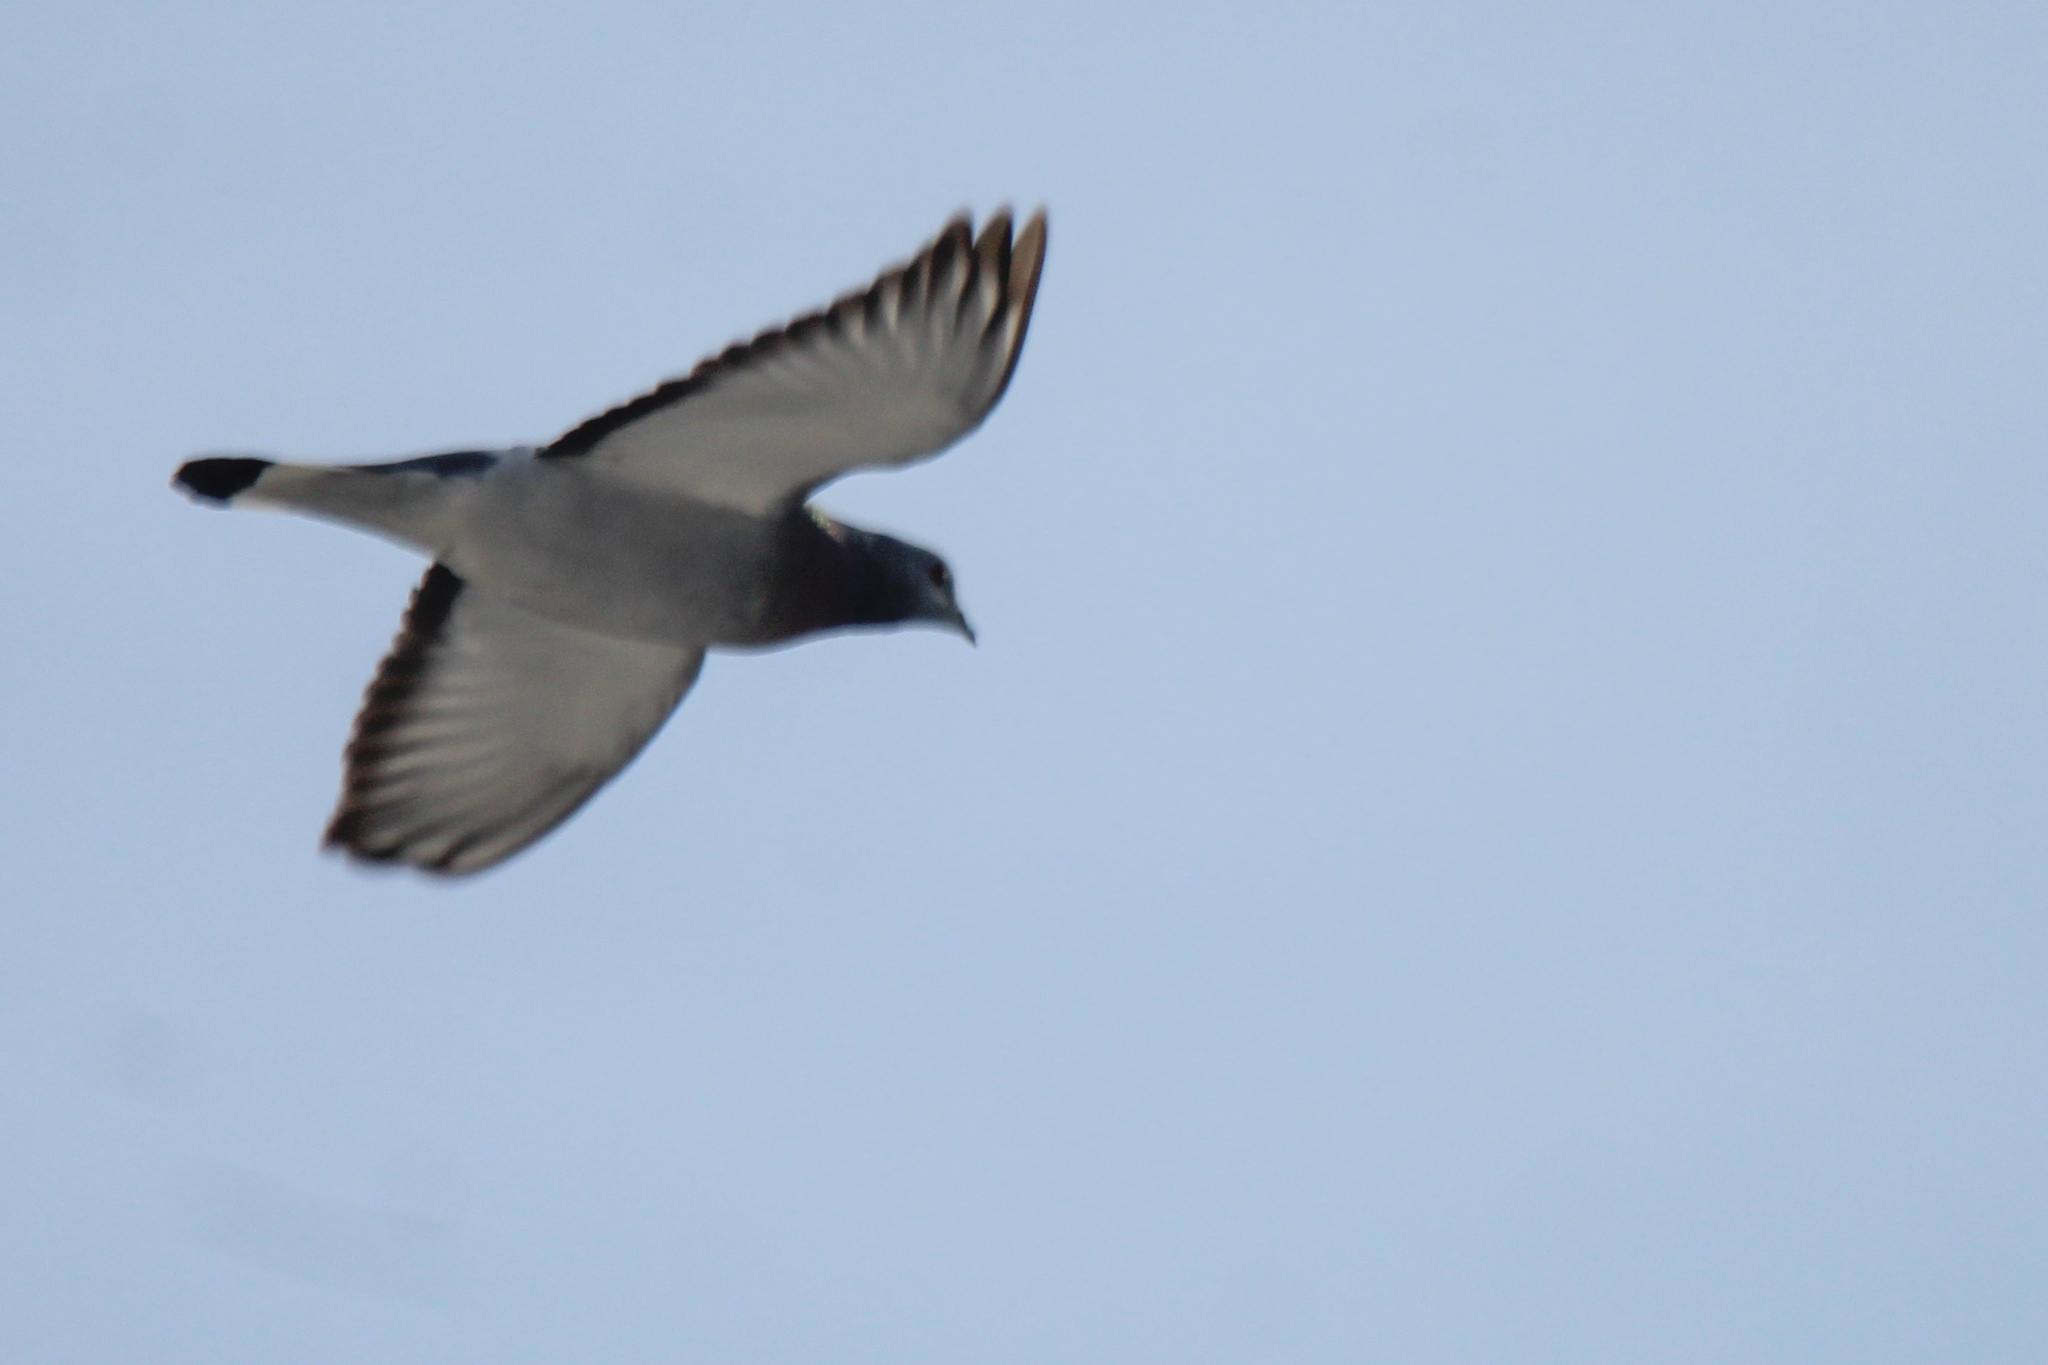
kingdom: Animalia
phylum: Chordata
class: Aves
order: Columbiformes
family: Columbidae
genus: Columba
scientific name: Columba rupestris
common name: Hill pigeon
